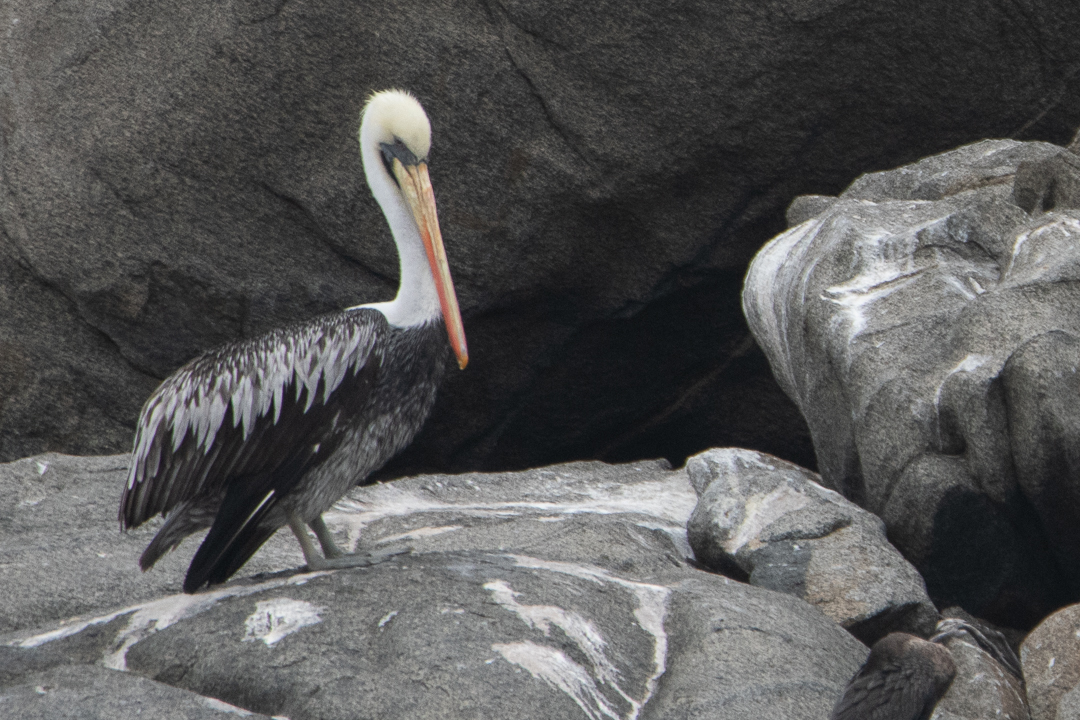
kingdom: Animalia
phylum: Chordata
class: Aves
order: Pelecaniformes
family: Pelecanidae
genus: Pelecanus
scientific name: Pelecanus thagus
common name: Peruvian pelican
